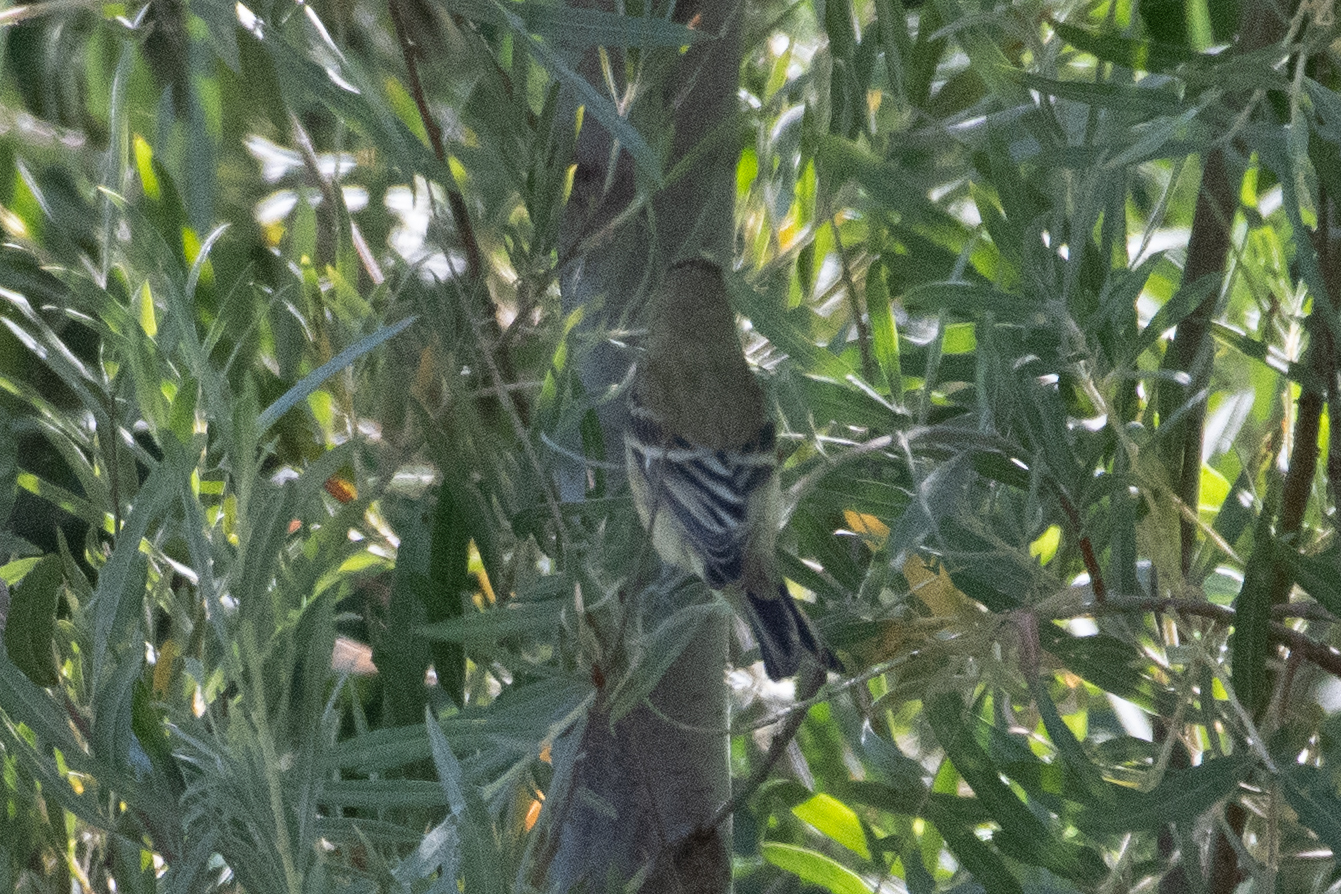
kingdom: Animalia
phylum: Chordata
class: Aves
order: Passeriformes
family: Fringillidae
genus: Spinus
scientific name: Spinus psaltria
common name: Lesser goldfinch
